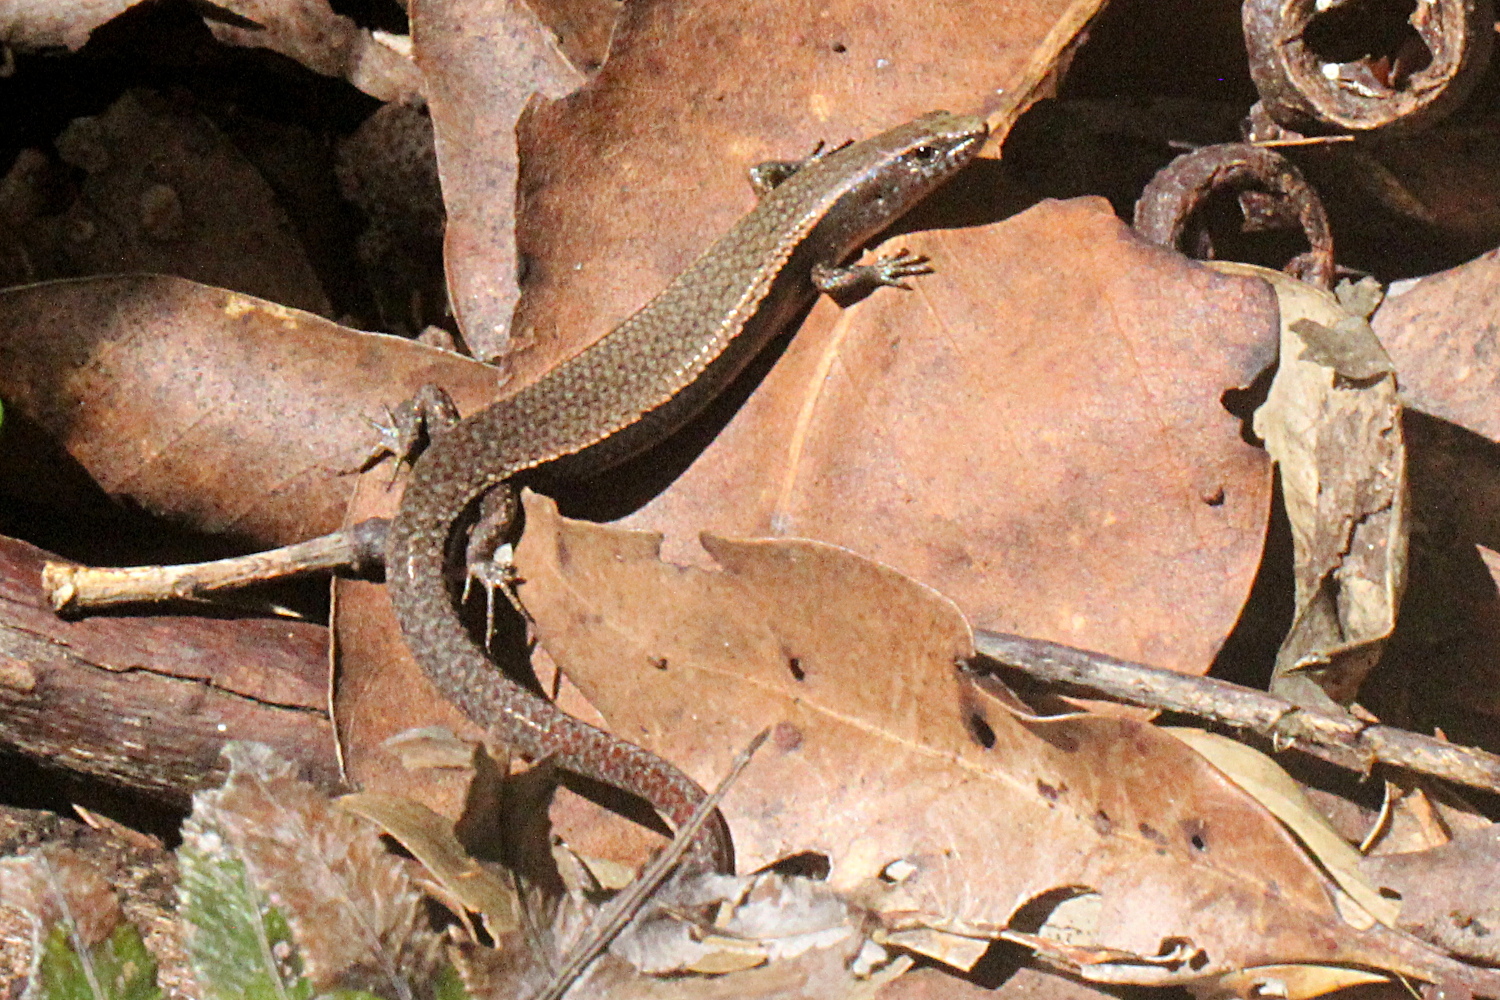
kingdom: Animalia
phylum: Chordata
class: Squamata
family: Scincidae
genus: Lampropholis
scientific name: Lampropholis couperi
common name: Plain-backed sunskink
